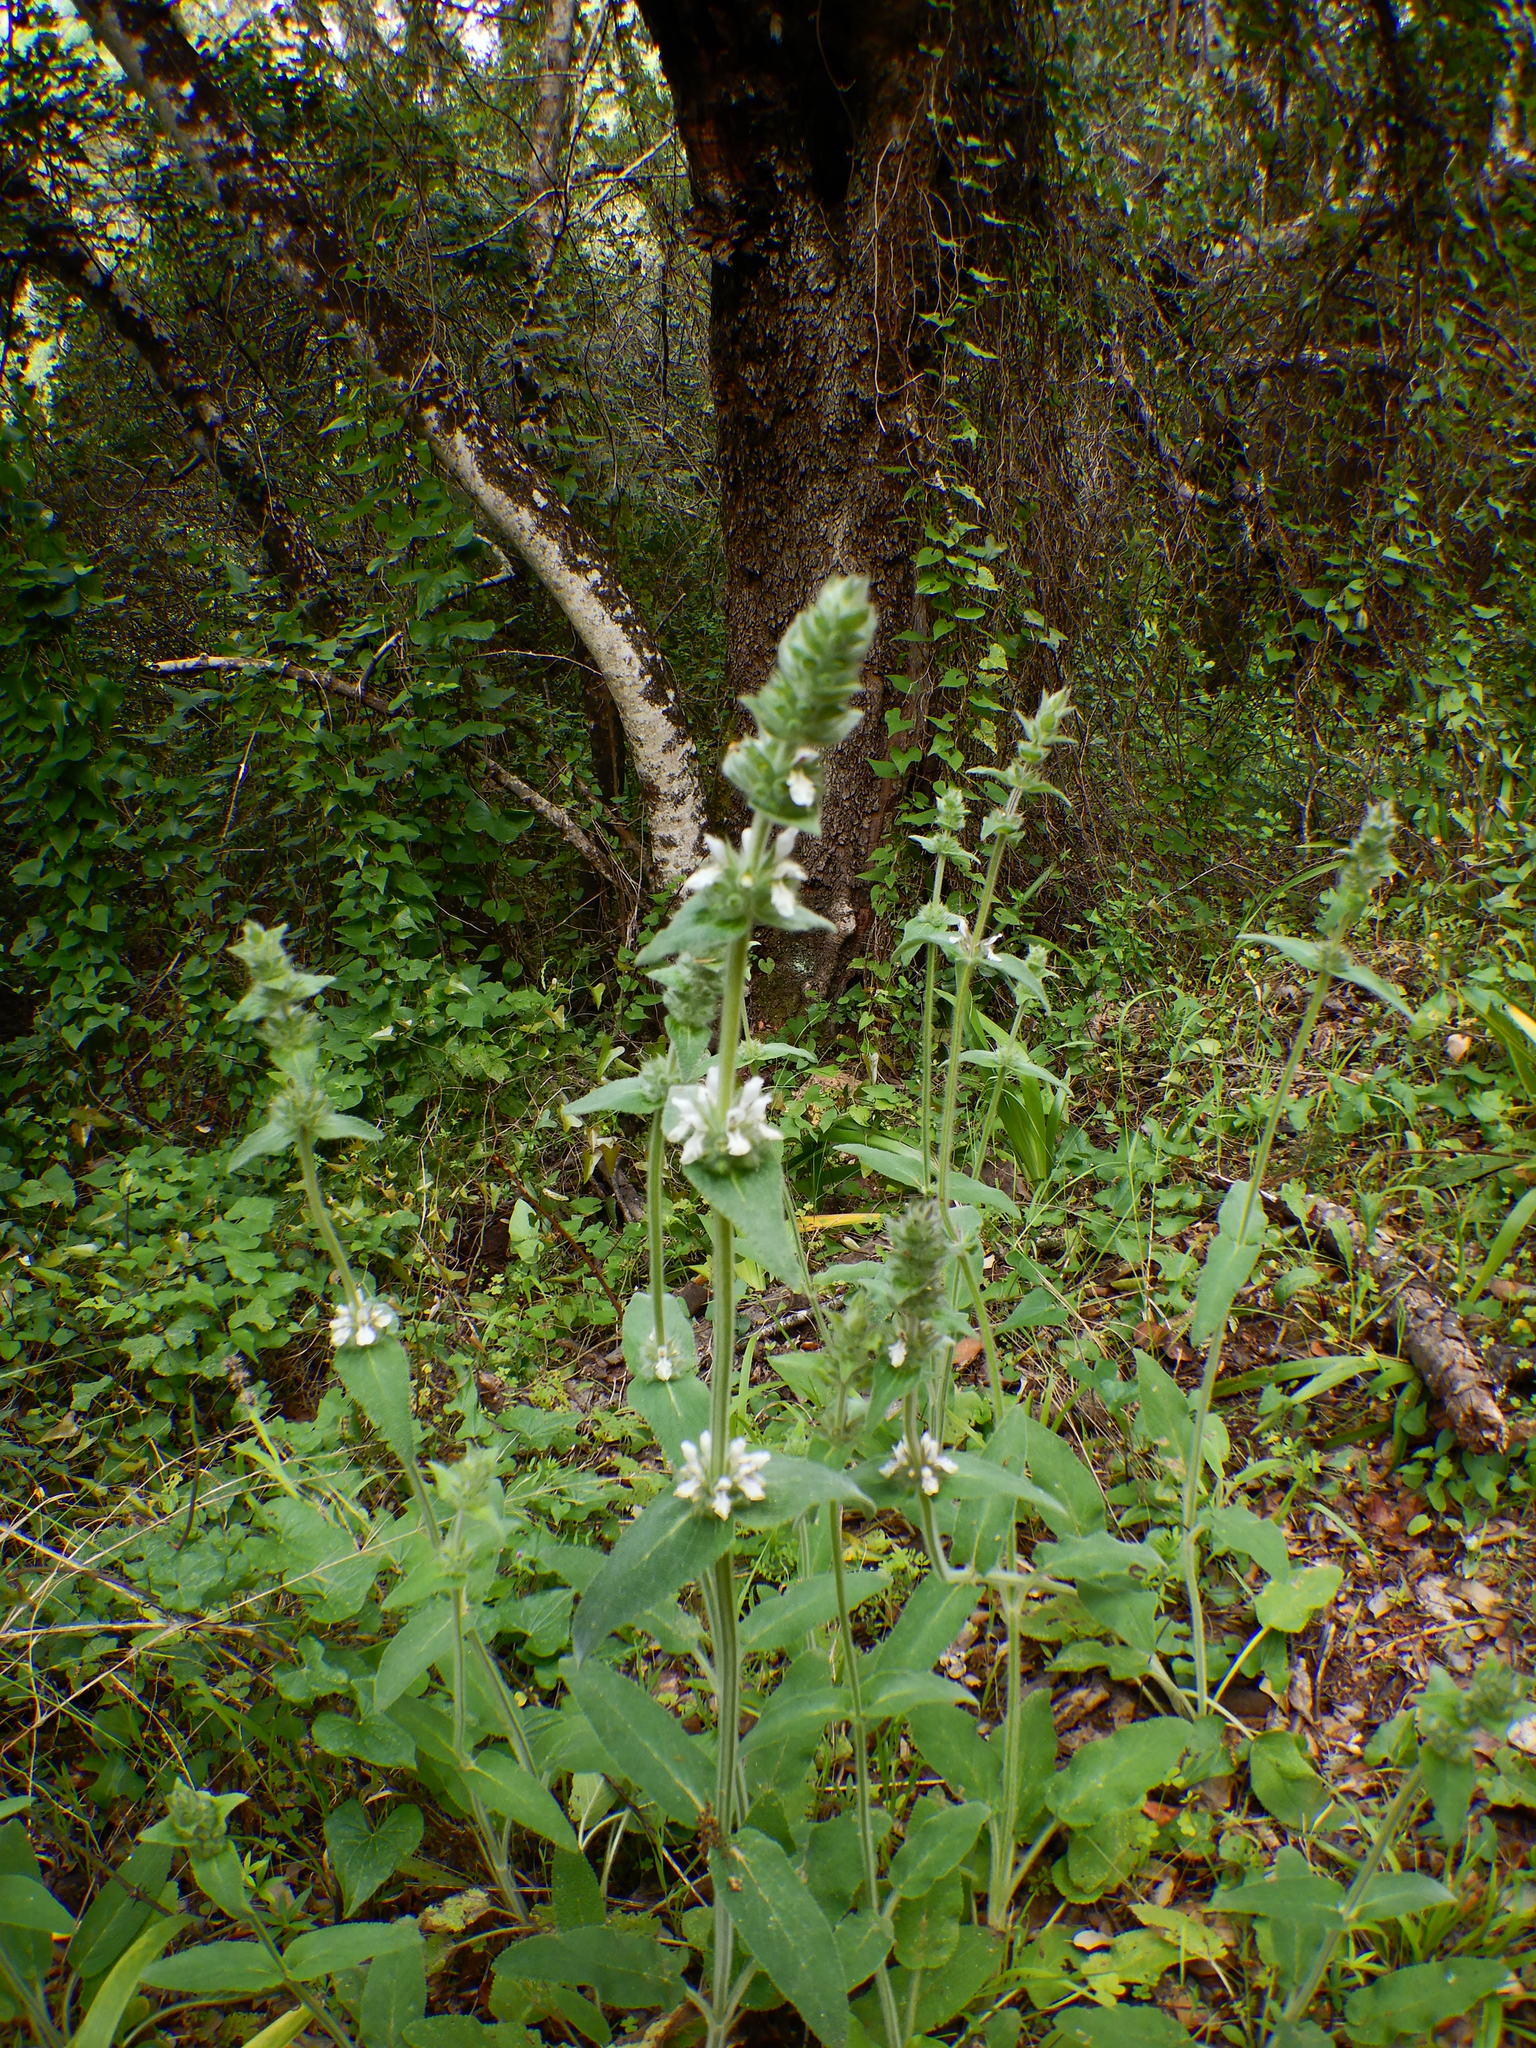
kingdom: Plantae
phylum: Tracheophyta
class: Magnoliopsida
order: Lamiales
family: Lamiaceae
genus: Stachys
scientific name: Stachys germanica
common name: Downy woundwort
